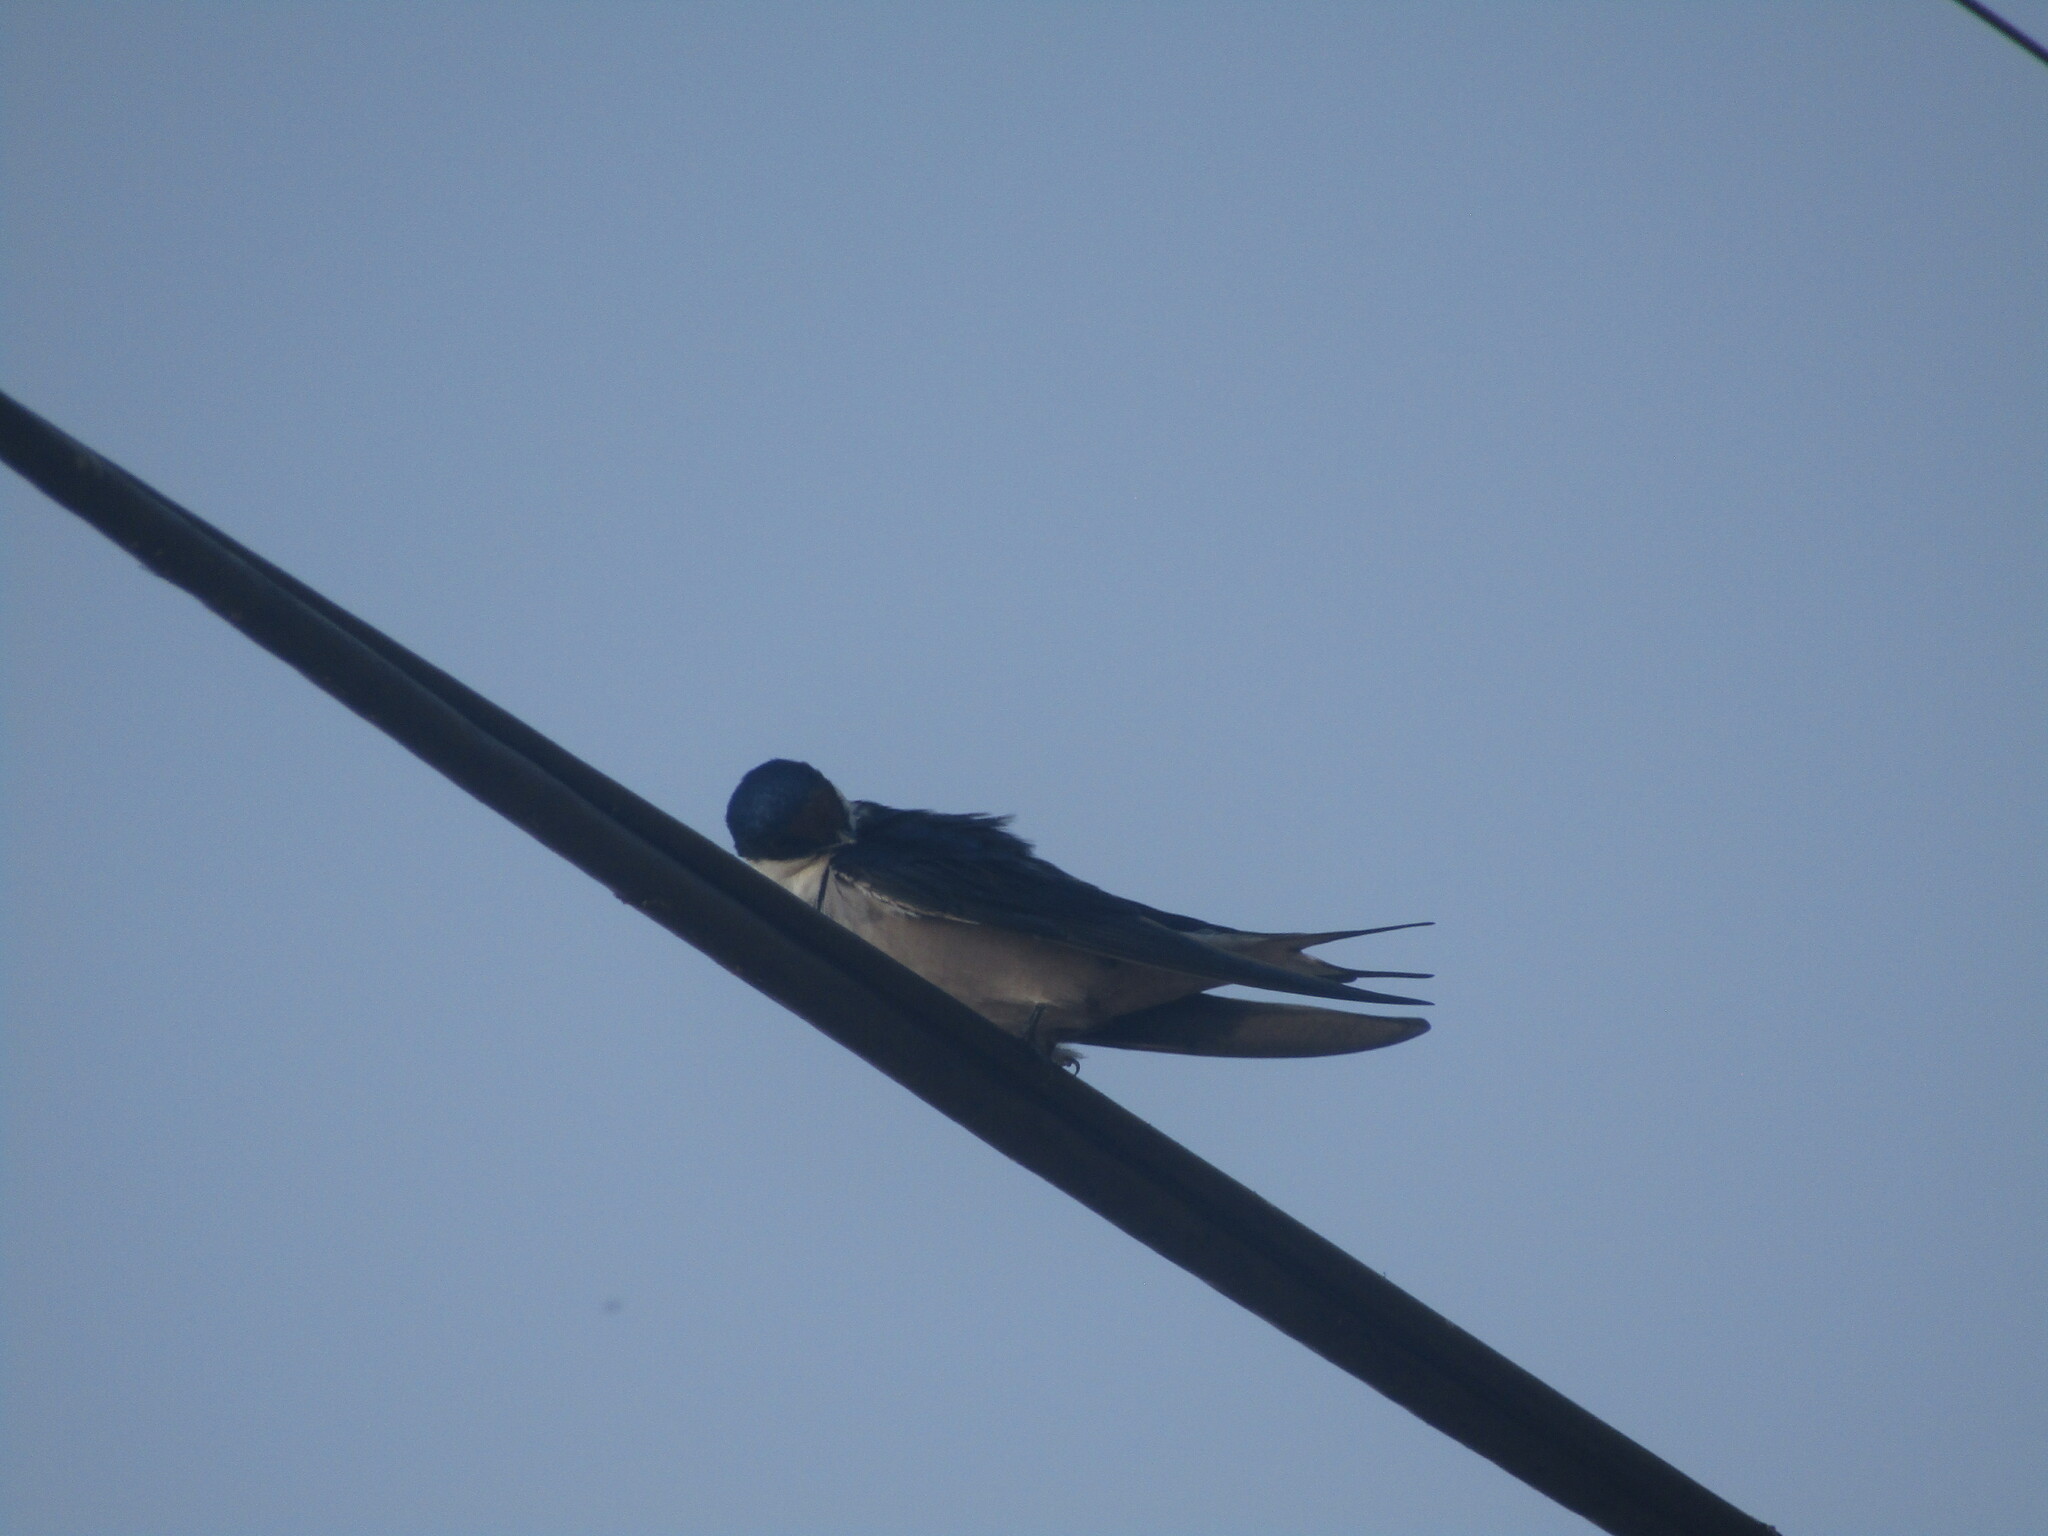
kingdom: Animalia
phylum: Chordata
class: Aves
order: Passeriformes
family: Hirundinidae
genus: Hirundo
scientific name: Hirundo albigularis
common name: White-throated swallow
